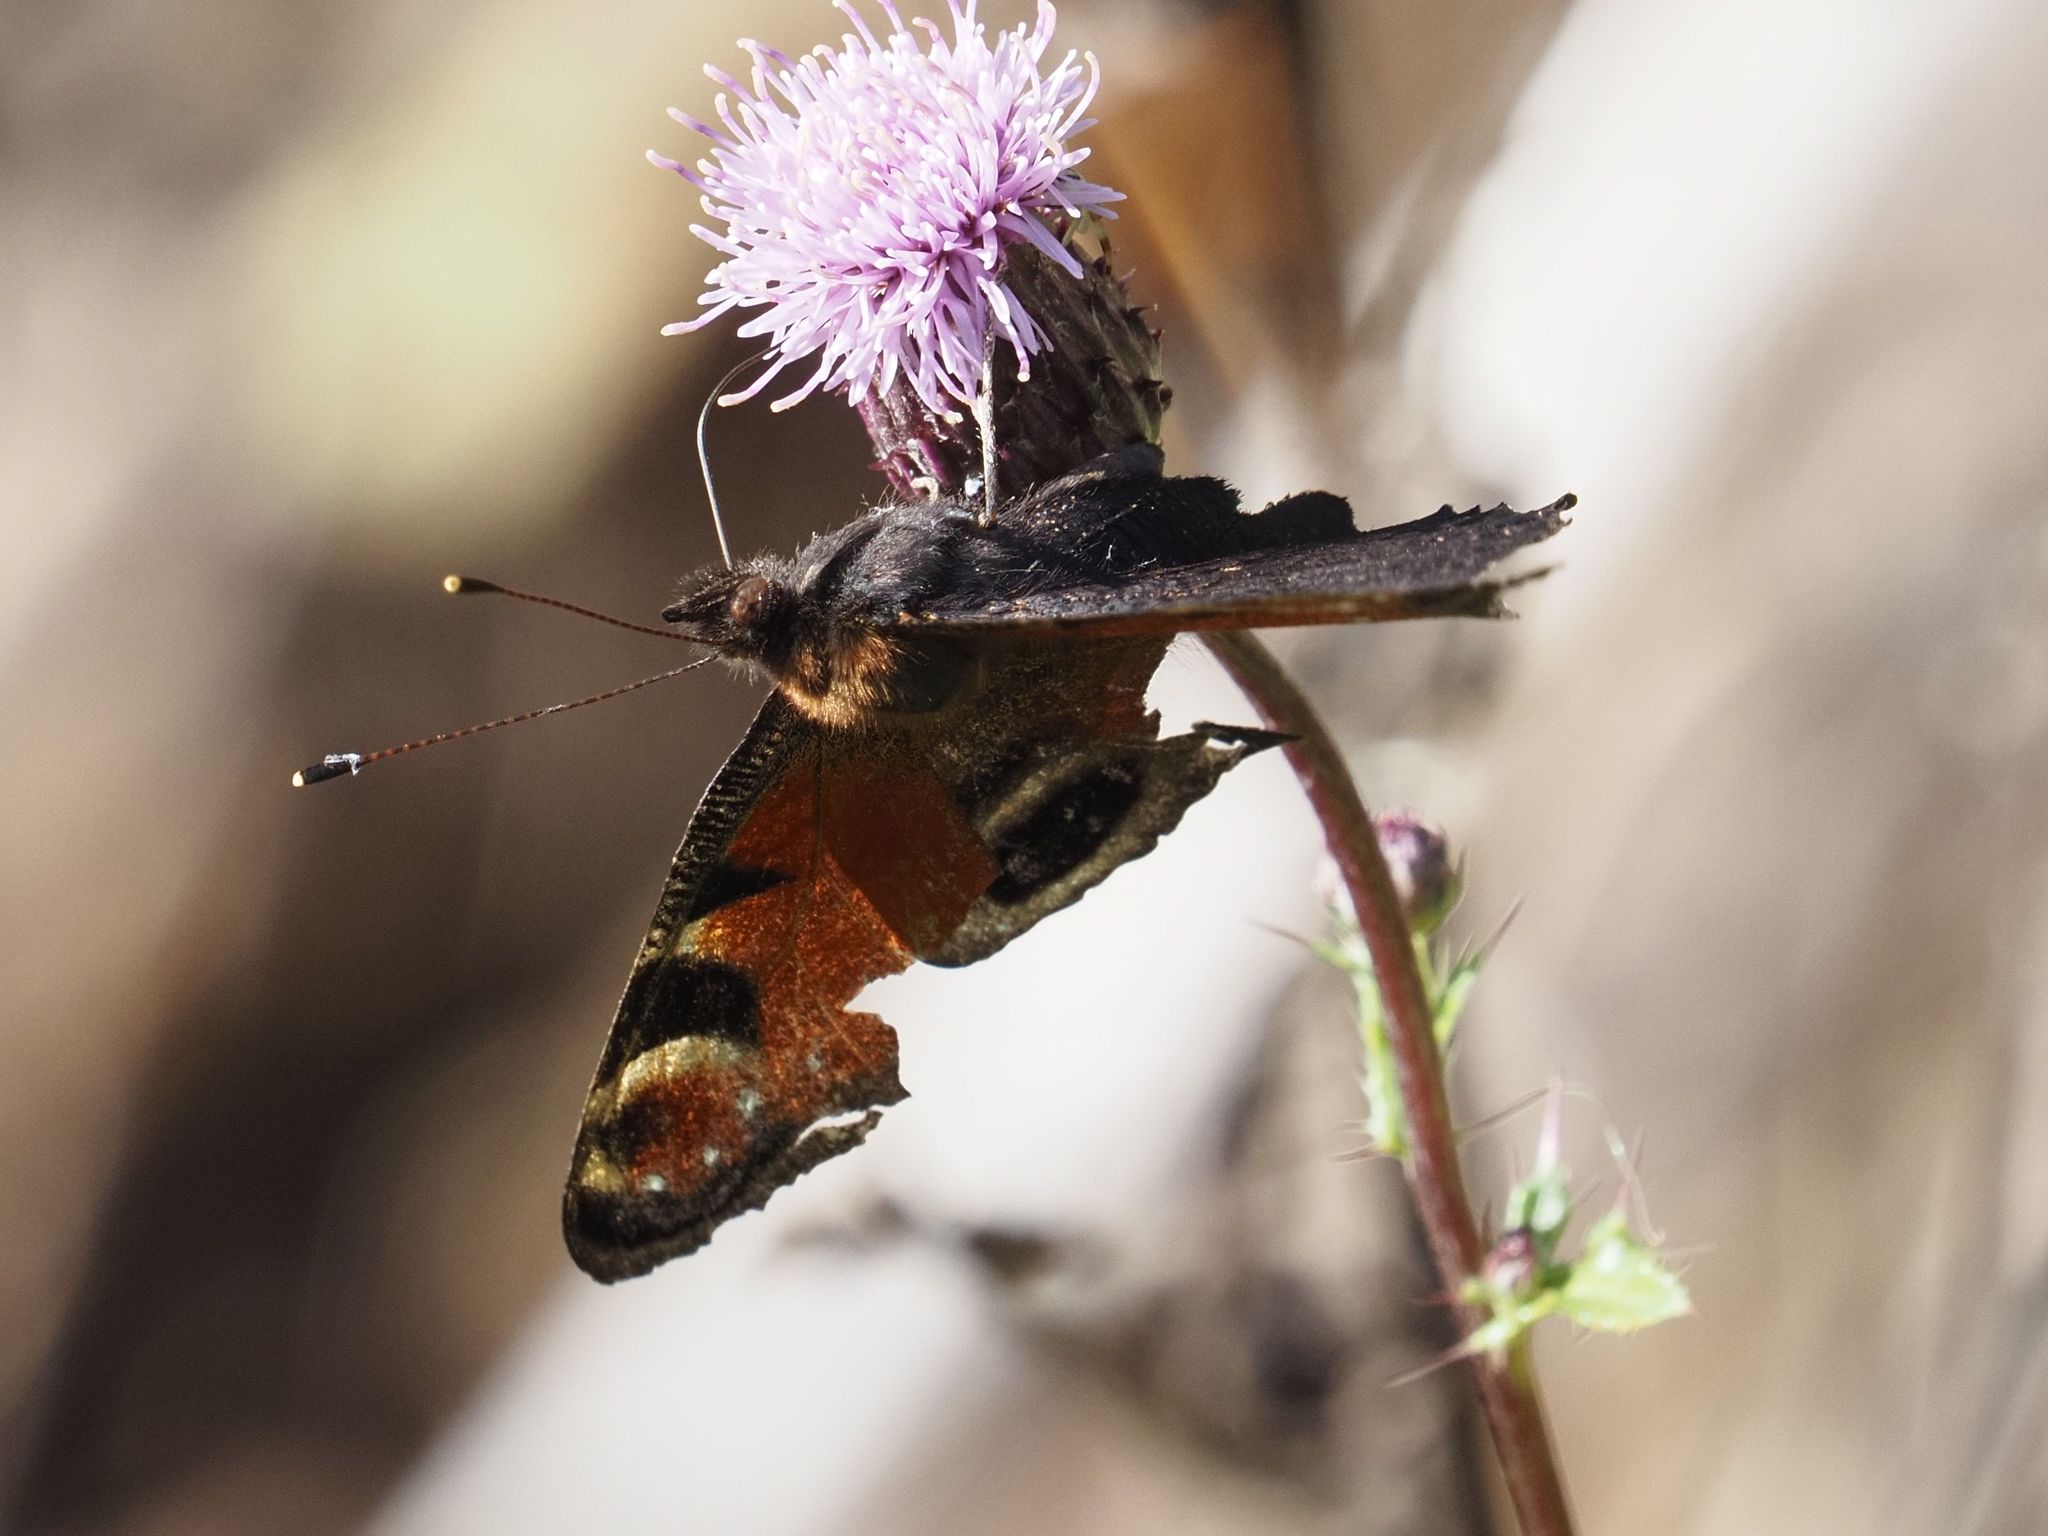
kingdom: Animalia
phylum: Arthropoda
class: Insecta
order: Lepidoptera
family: Nymphalidae
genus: Aglais
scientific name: Aglais io
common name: Peacock
